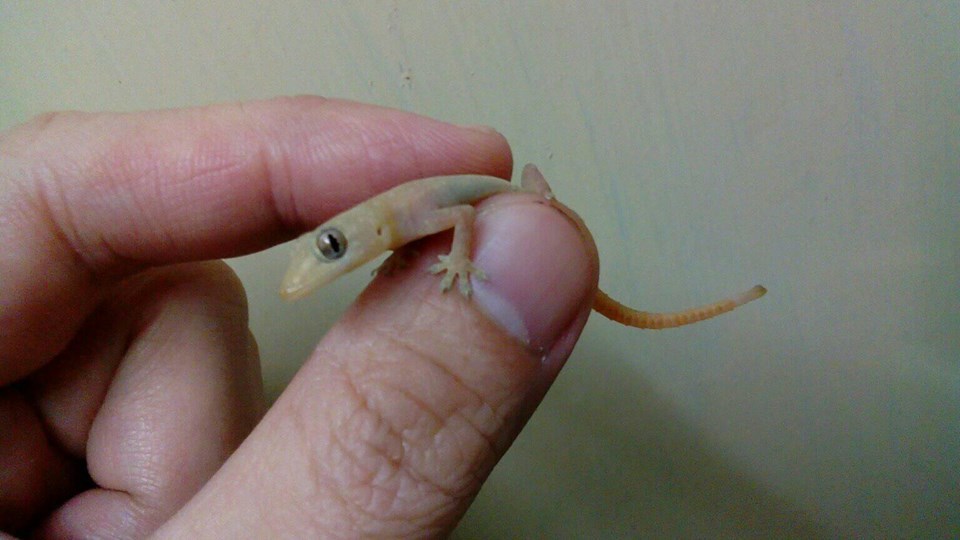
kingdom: Animalia
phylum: Chordata
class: Squamata
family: Gekkonidae
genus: Hemidactylus
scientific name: Hemidactylus frenatus
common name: Common house gecko
